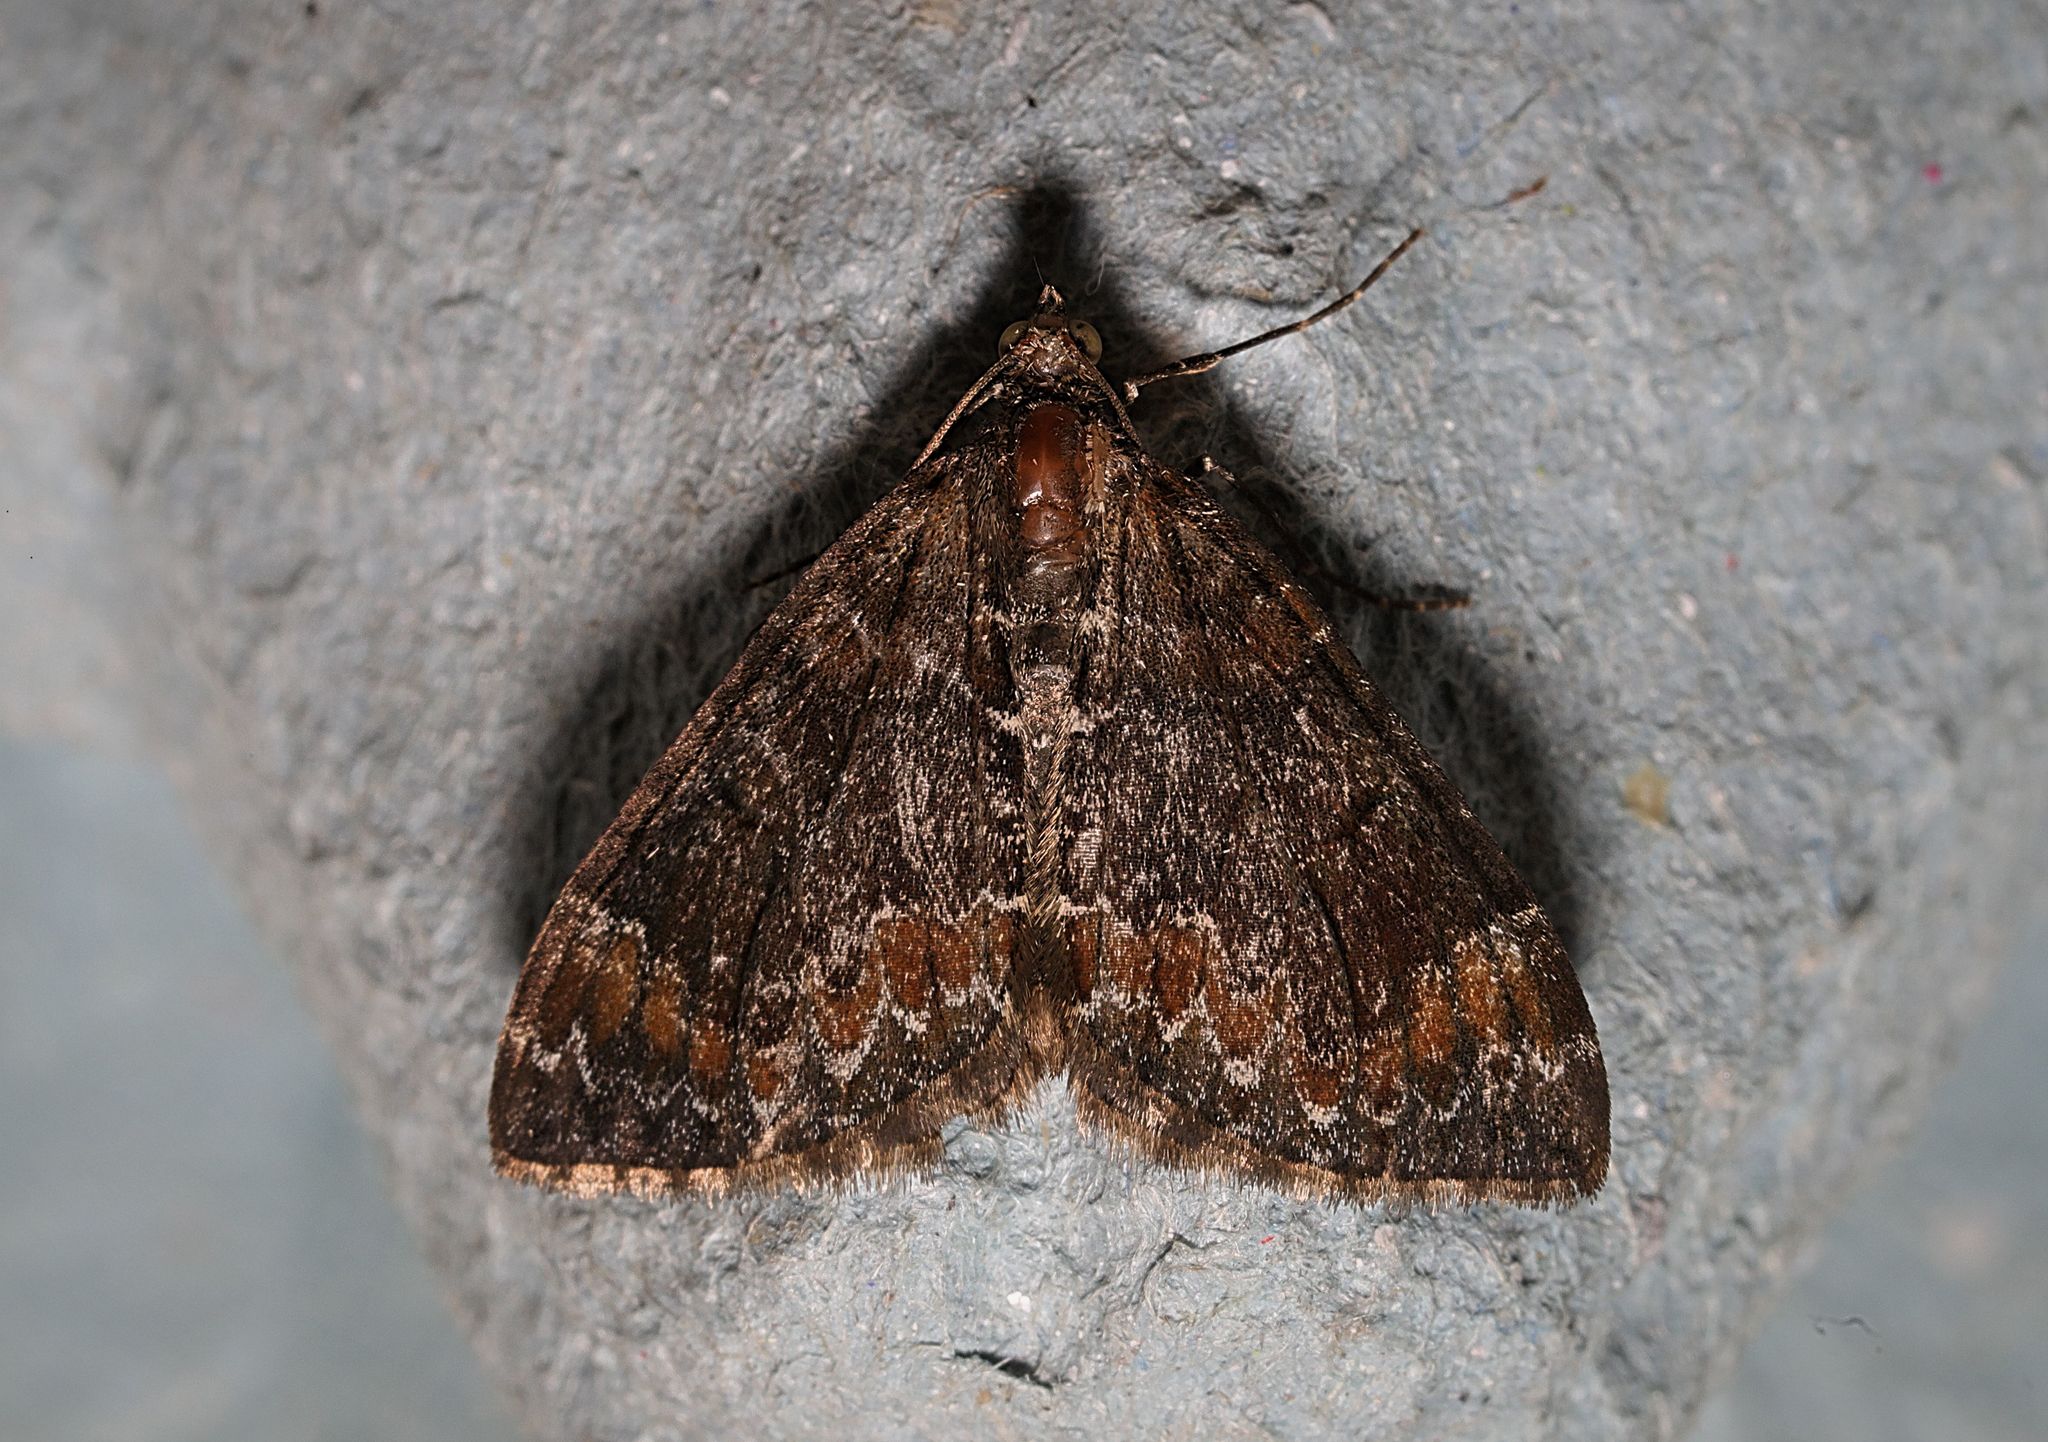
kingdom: Animalia
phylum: Arthropoda
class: Insecta
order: Lepidoptera
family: Geometridae
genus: Dysstroma
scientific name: Dysstroma truncata
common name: Common marbled carpet
